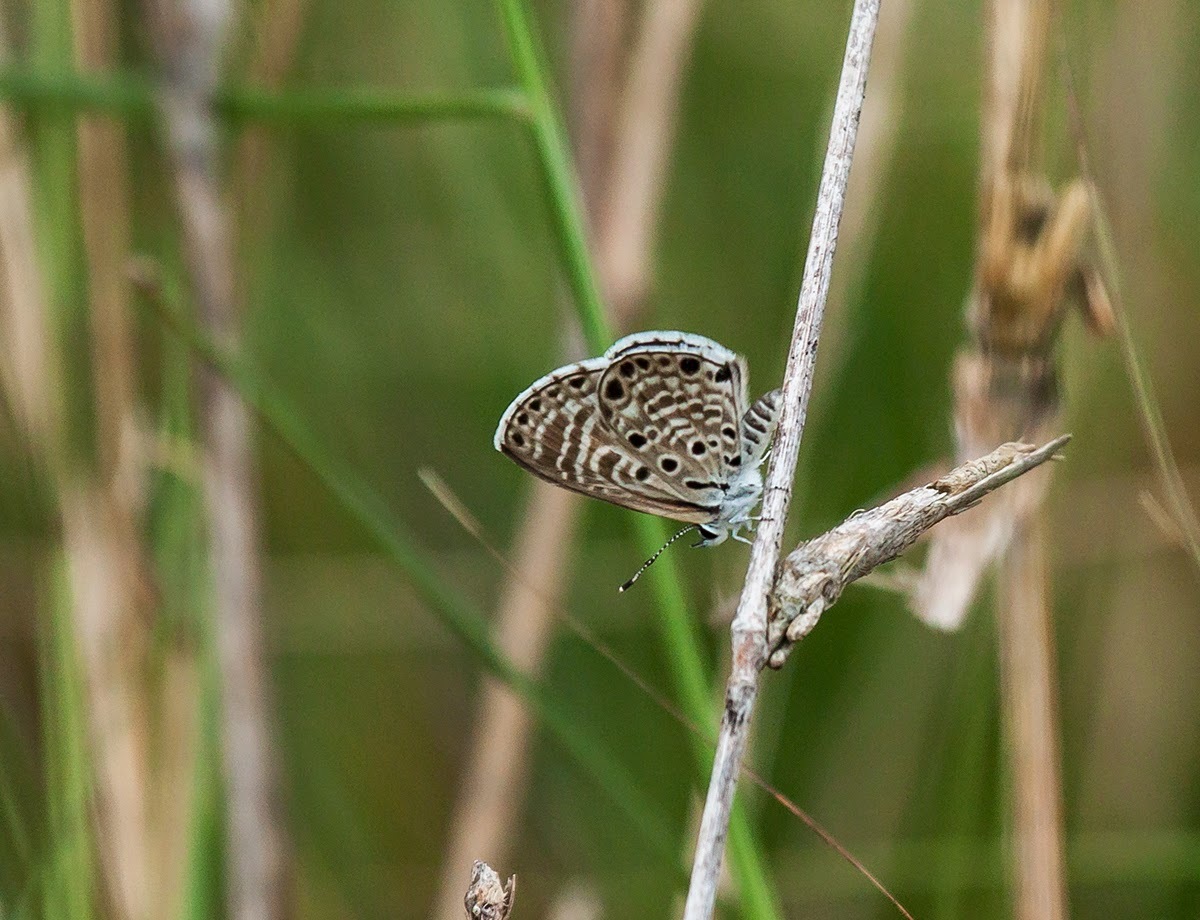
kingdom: Animalia
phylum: Arthropoda
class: Insecta
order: Lepidoptera
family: Lycaenidae
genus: Azanus
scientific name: Azanus jesous
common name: African babul blue
